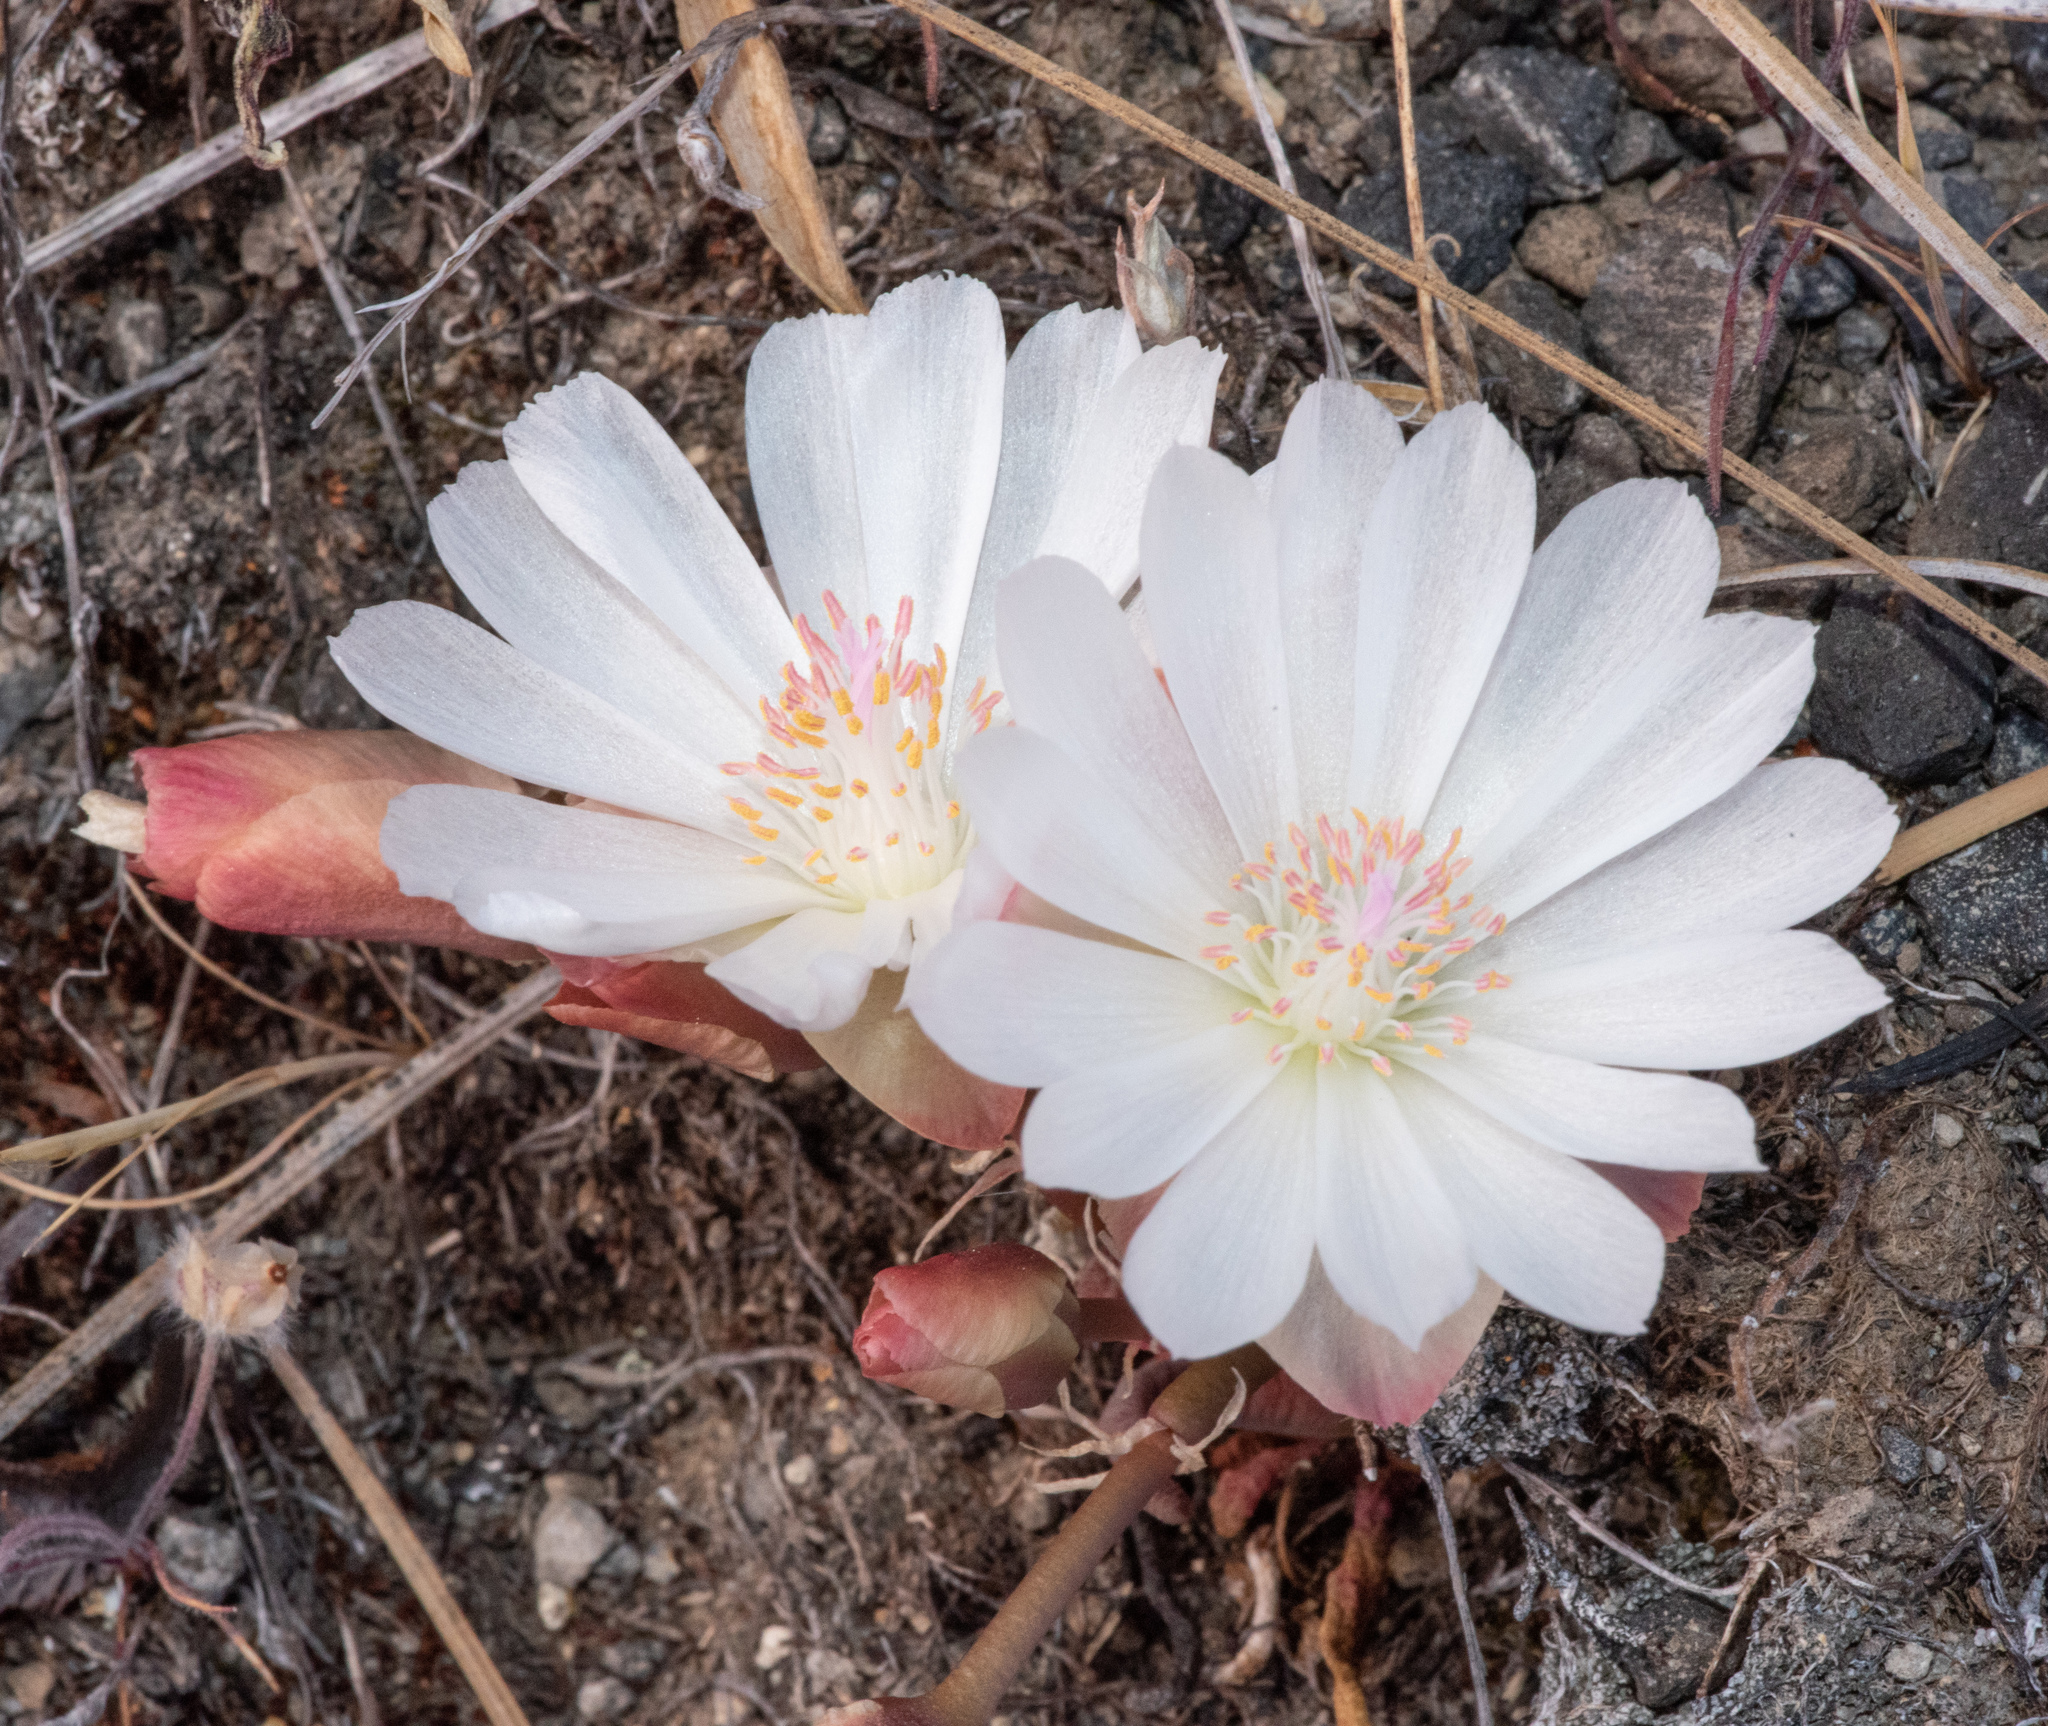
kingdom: Plantae
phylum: Tracheophyta
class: Magnoliopsida
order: Caryophyllales
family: Montiaceae
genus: Lewisia
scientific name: Lewisia rediviva
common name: Bitter-root
